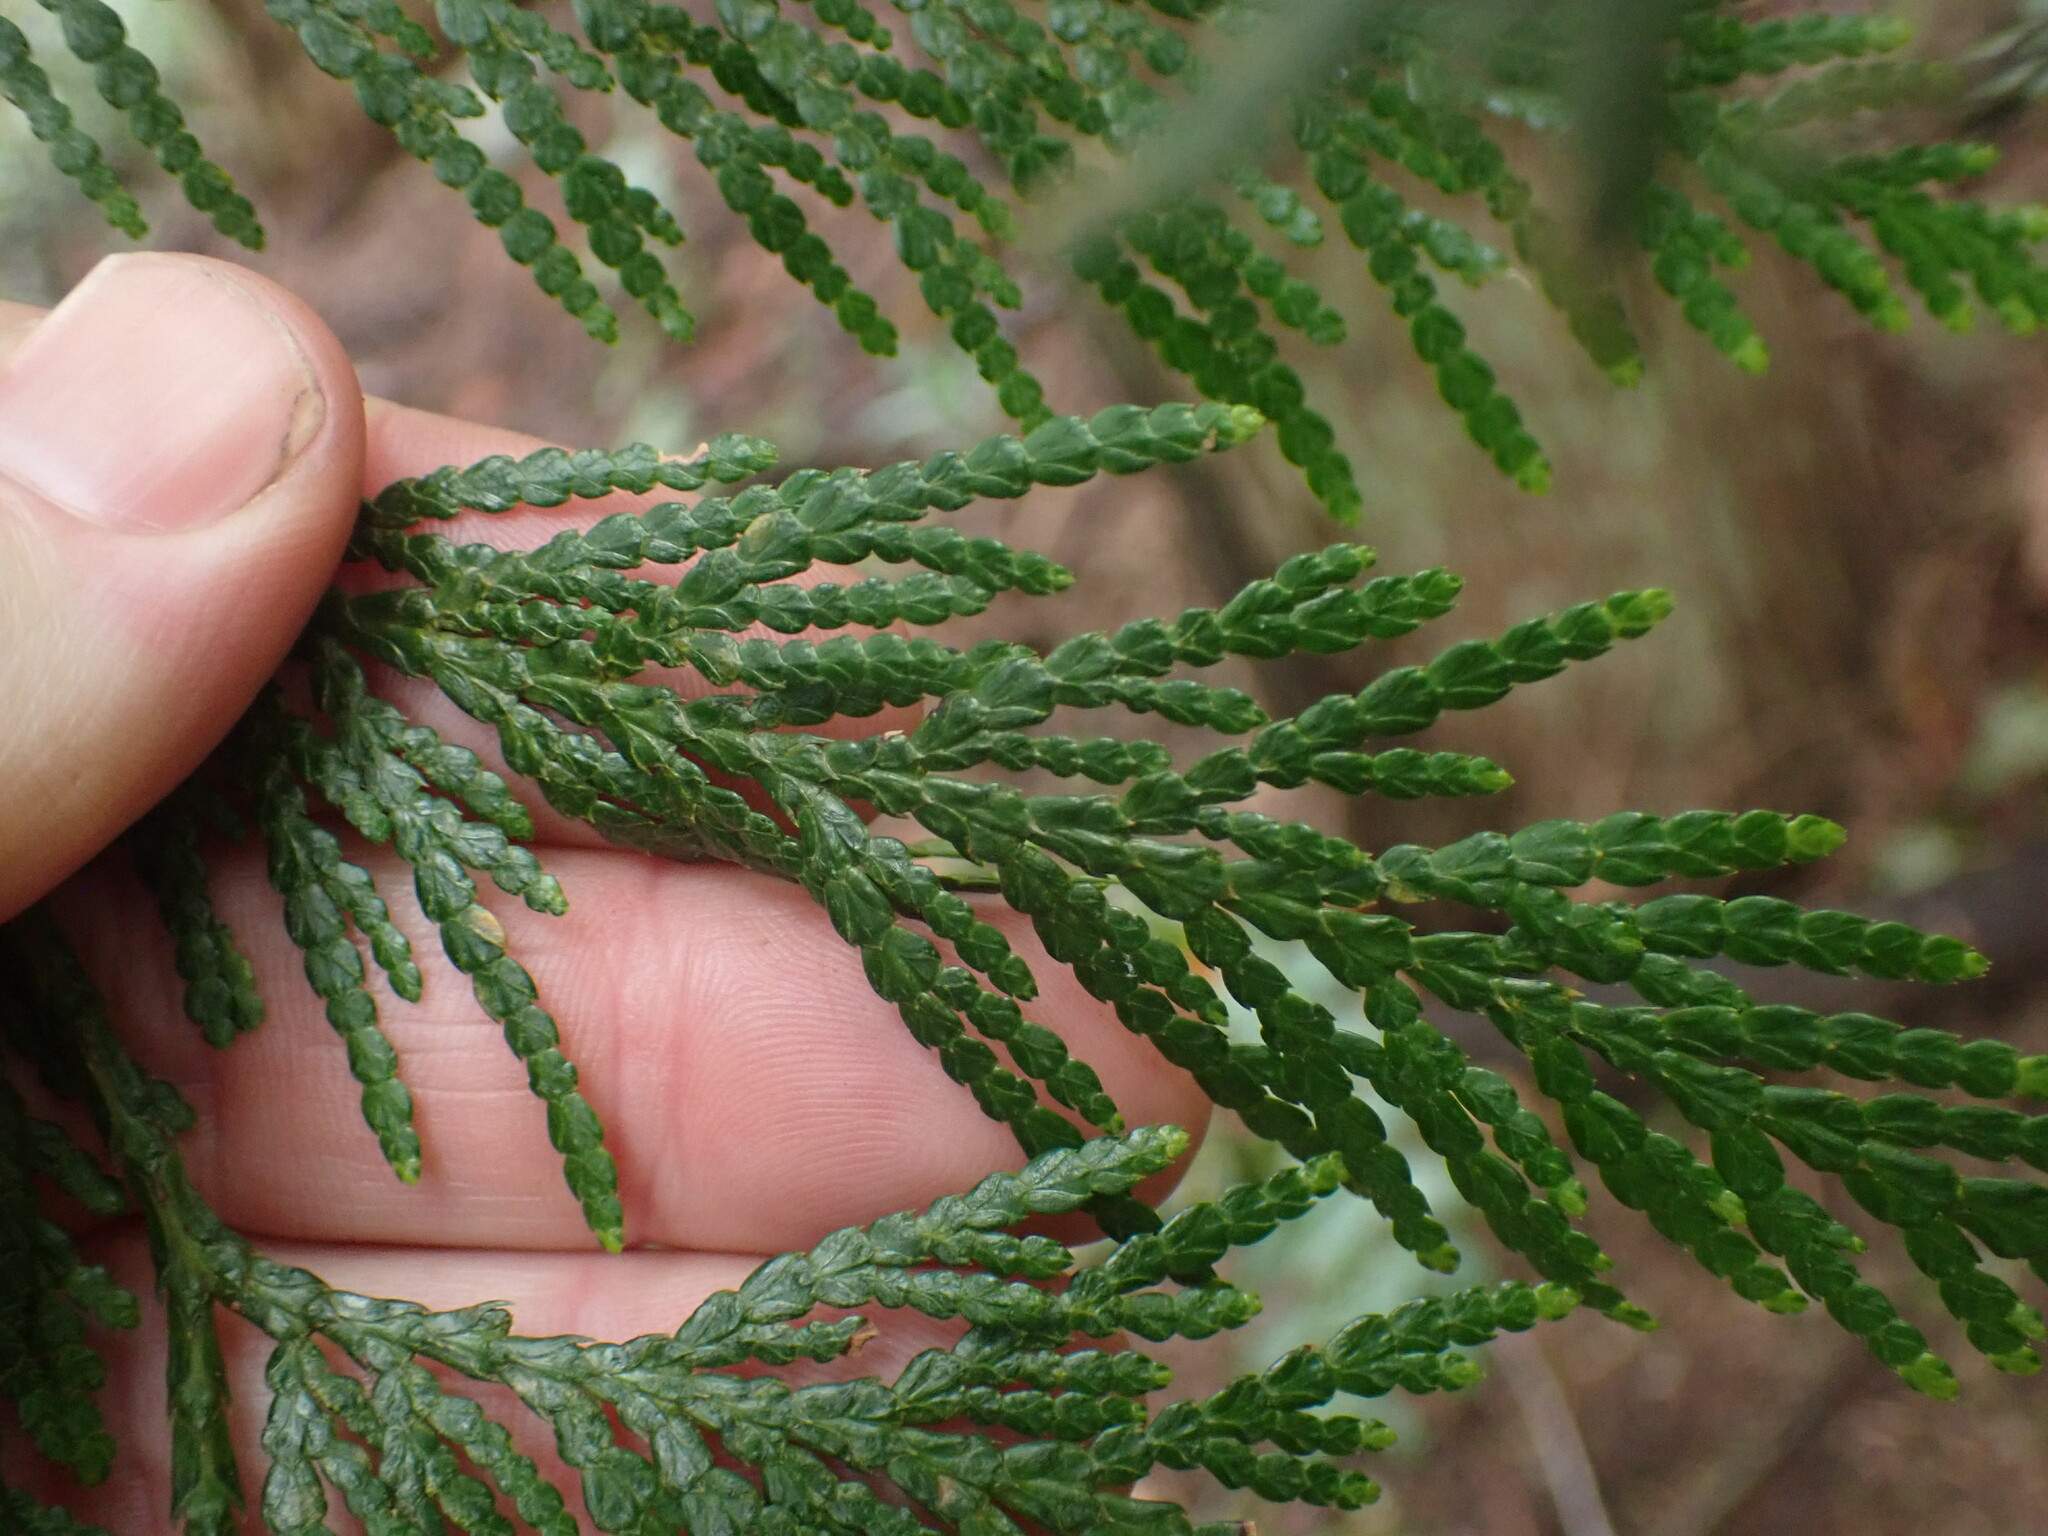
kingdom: Plantae
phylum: Tracheophyta
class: Pinopsida
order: Pinales
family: Cupressaceae
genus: Thuja
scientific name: Thuja plicata
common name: Western red-cedar
